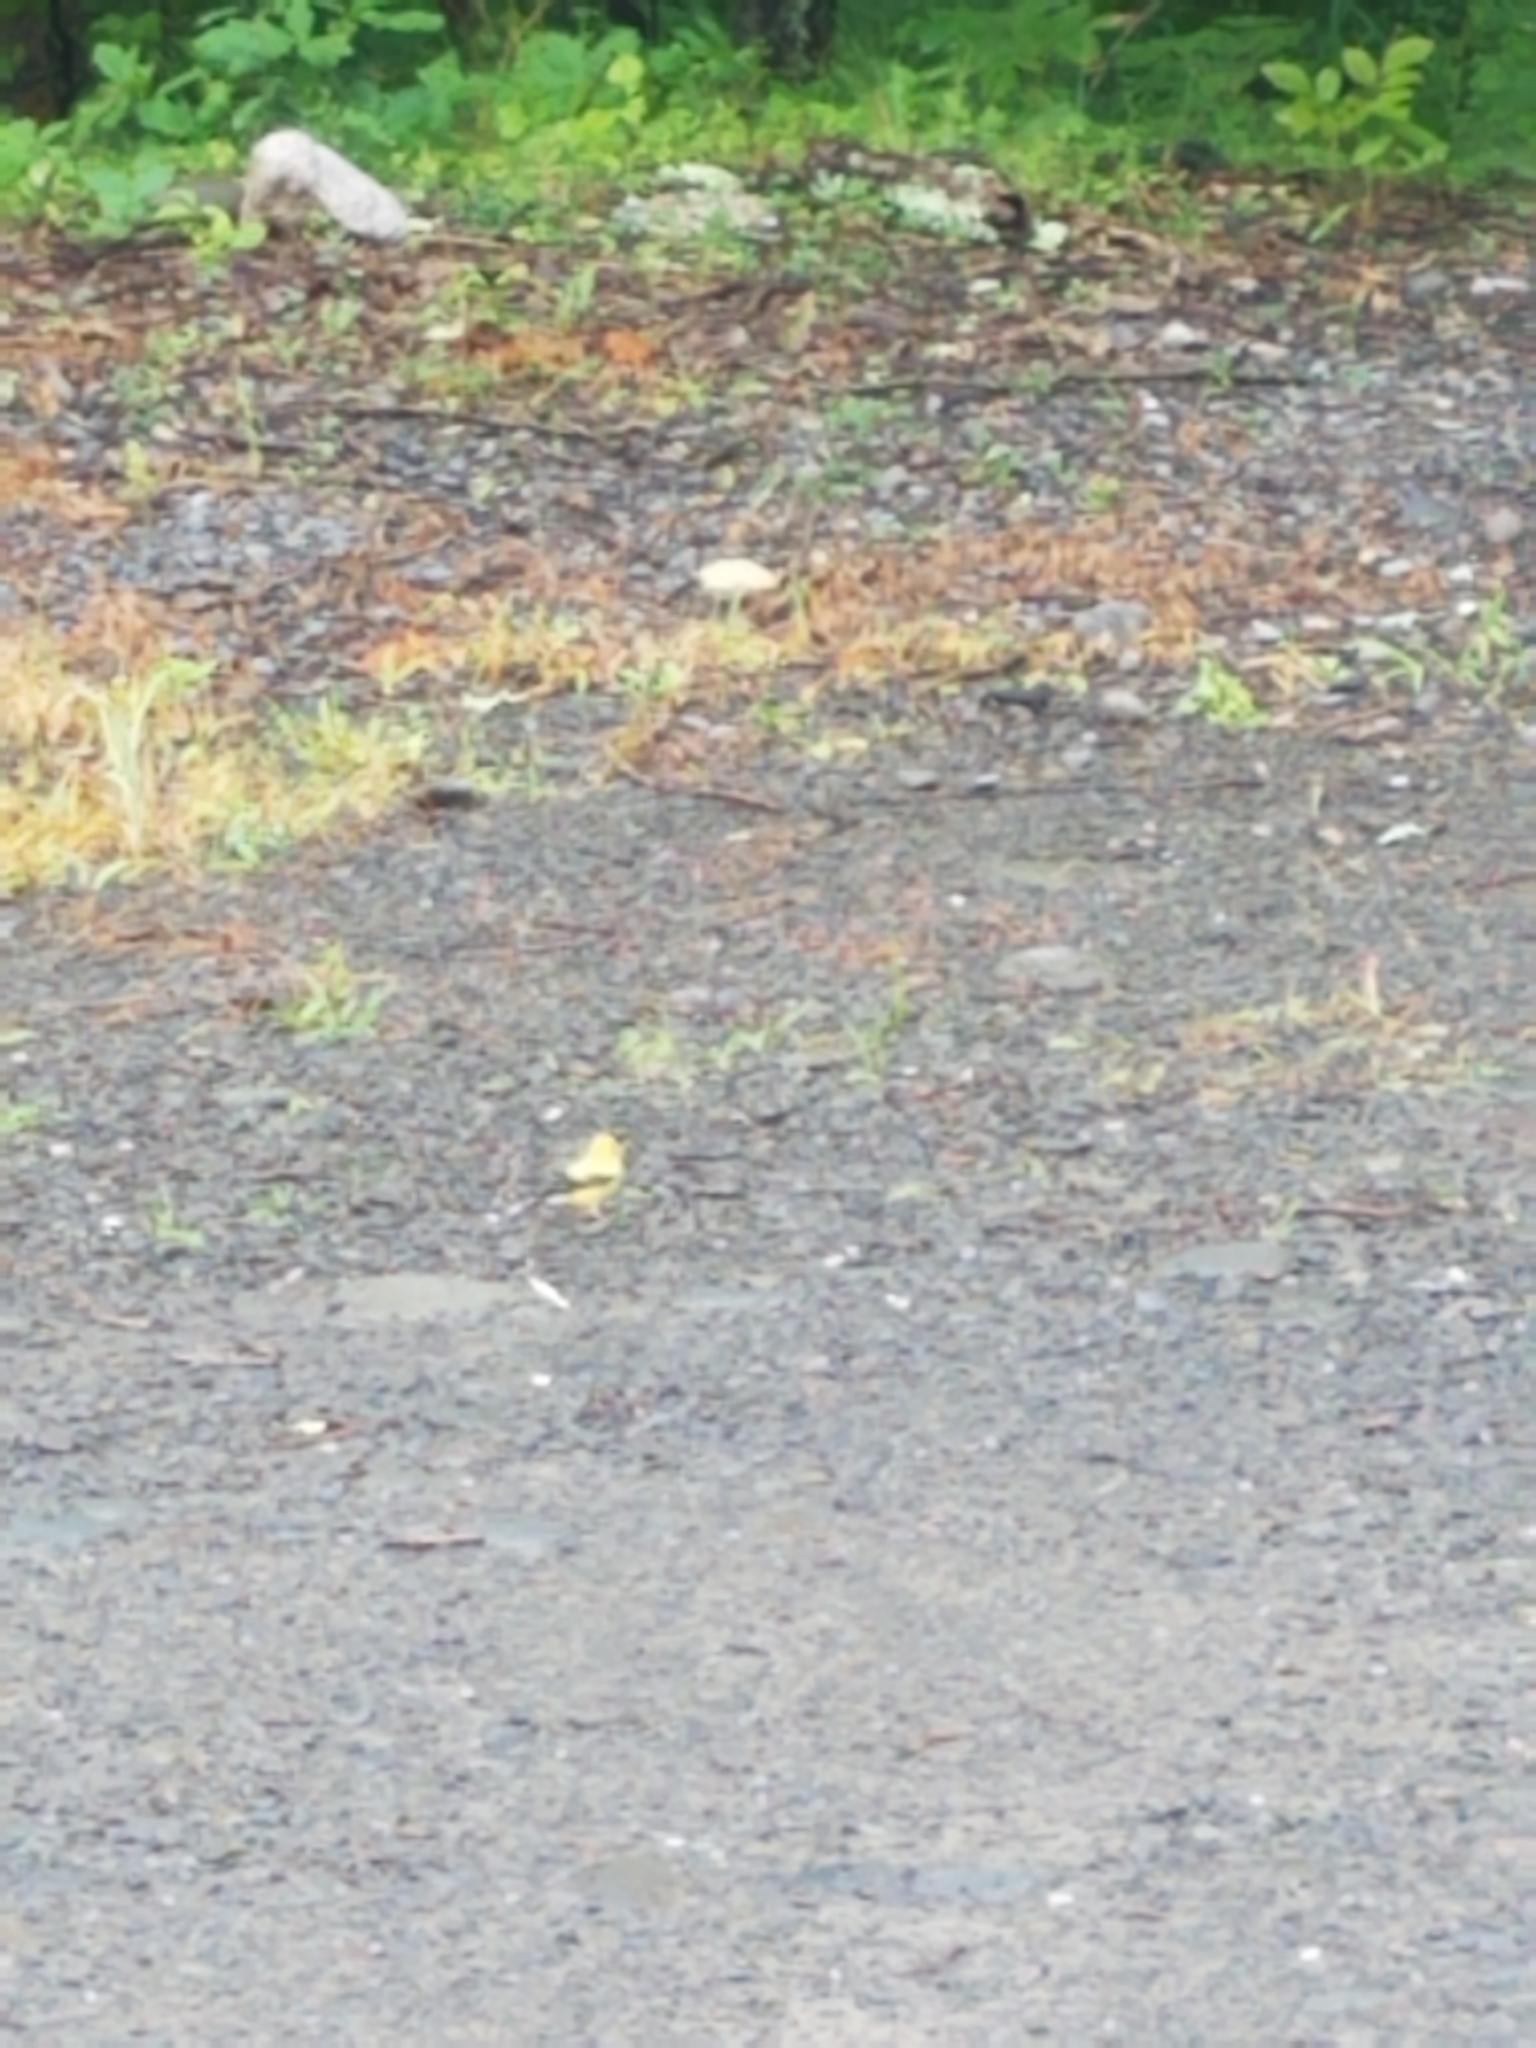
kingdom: Animalia
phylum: Chordata
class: Aves
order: Passeriformes
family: Fringillidae
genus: Spinus
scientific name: Spinus tristis
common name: American goldfinch
